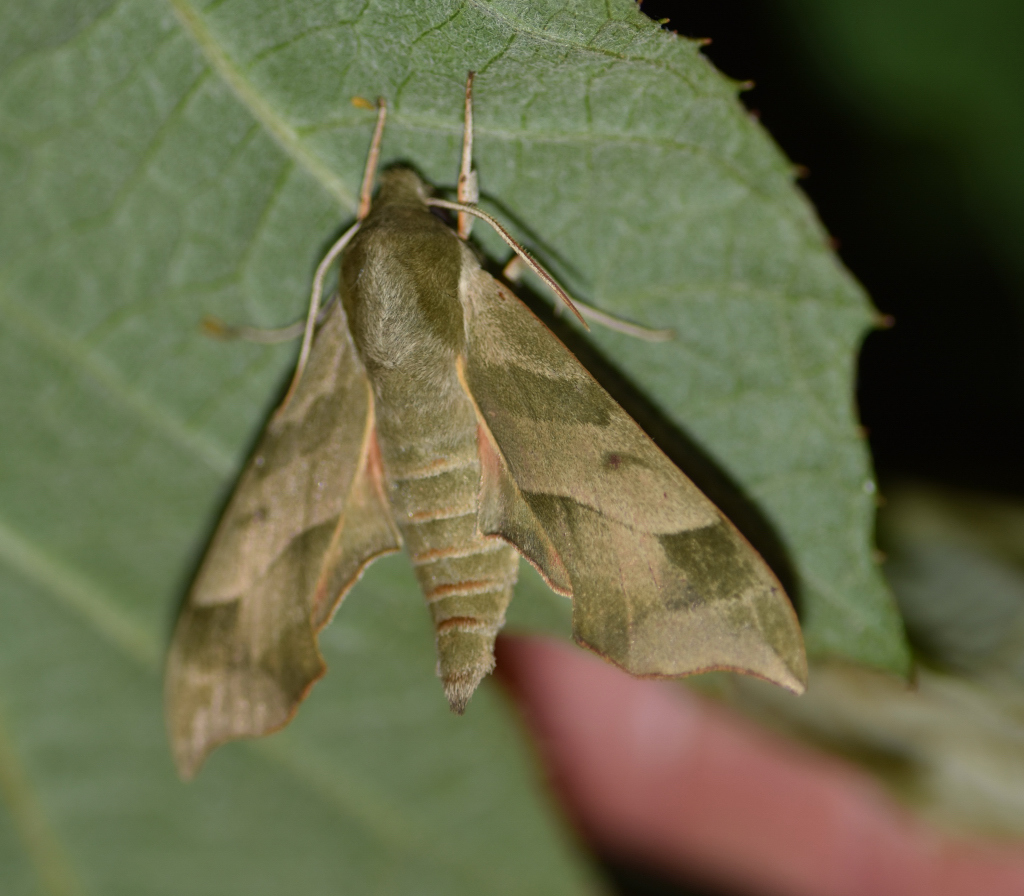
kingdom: Animalia
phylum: Arthropoda
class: Insecta
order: Lepidoptera
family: Sphingidae
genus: Darapsa
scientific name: Darapsa myron
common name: Hog sphinx
